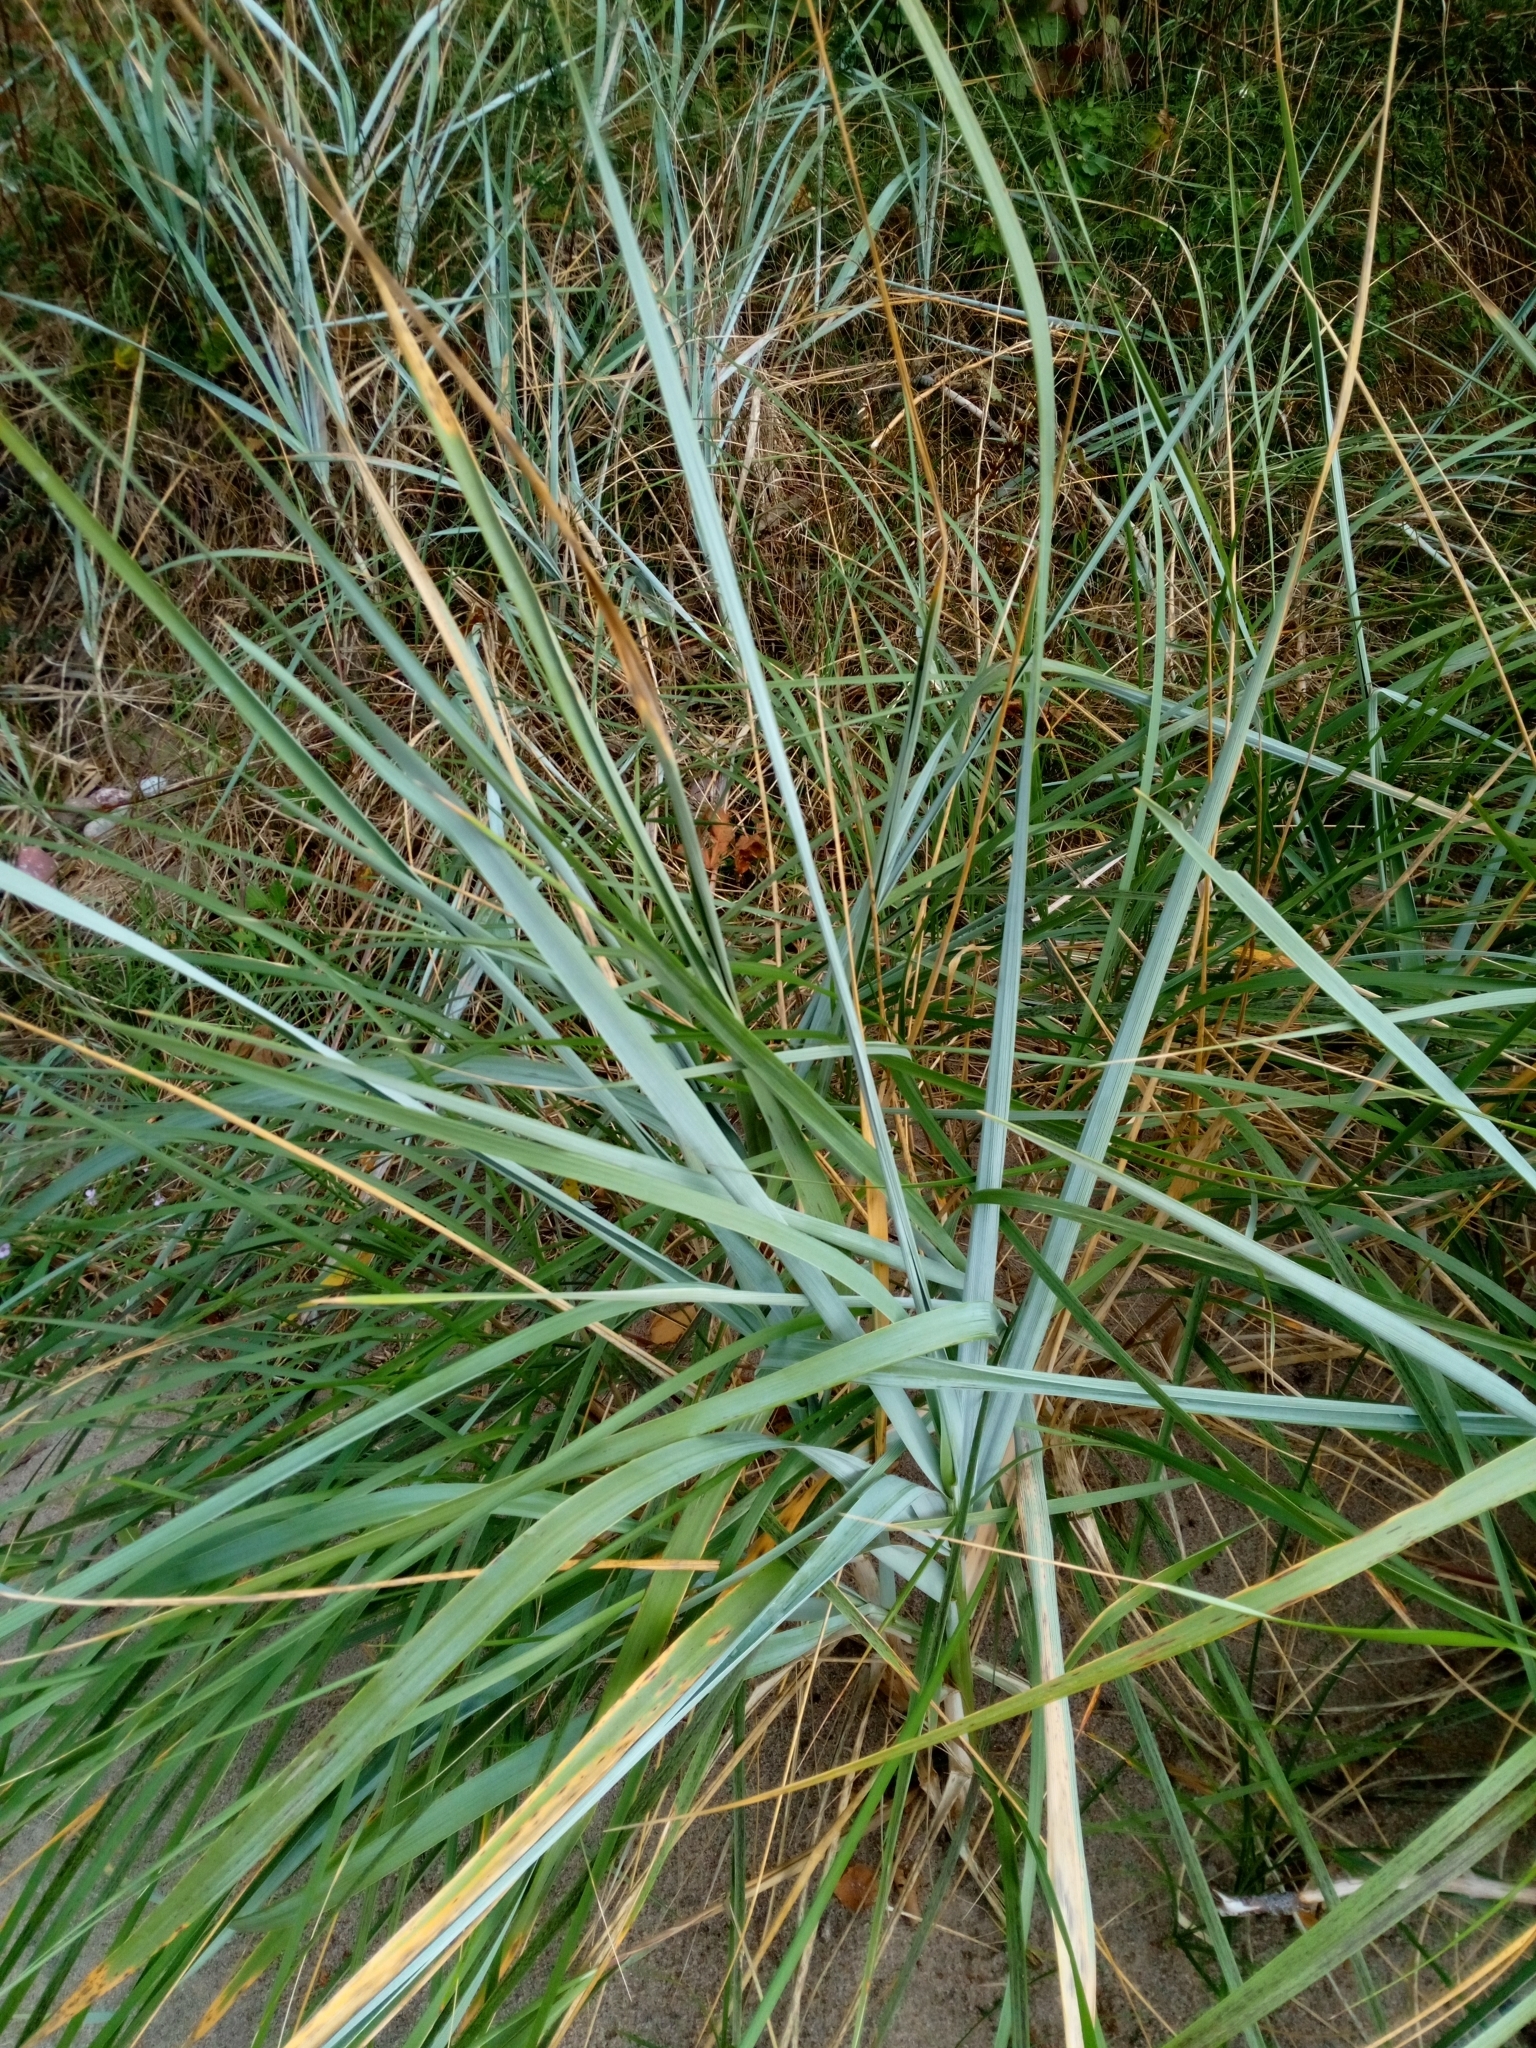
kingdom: Plantae
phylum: Tracheophyta
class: Liliopsida
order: Poales
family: Poaceae
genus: Leymus
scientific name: Leymus arenarius
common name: Lyme-grass
